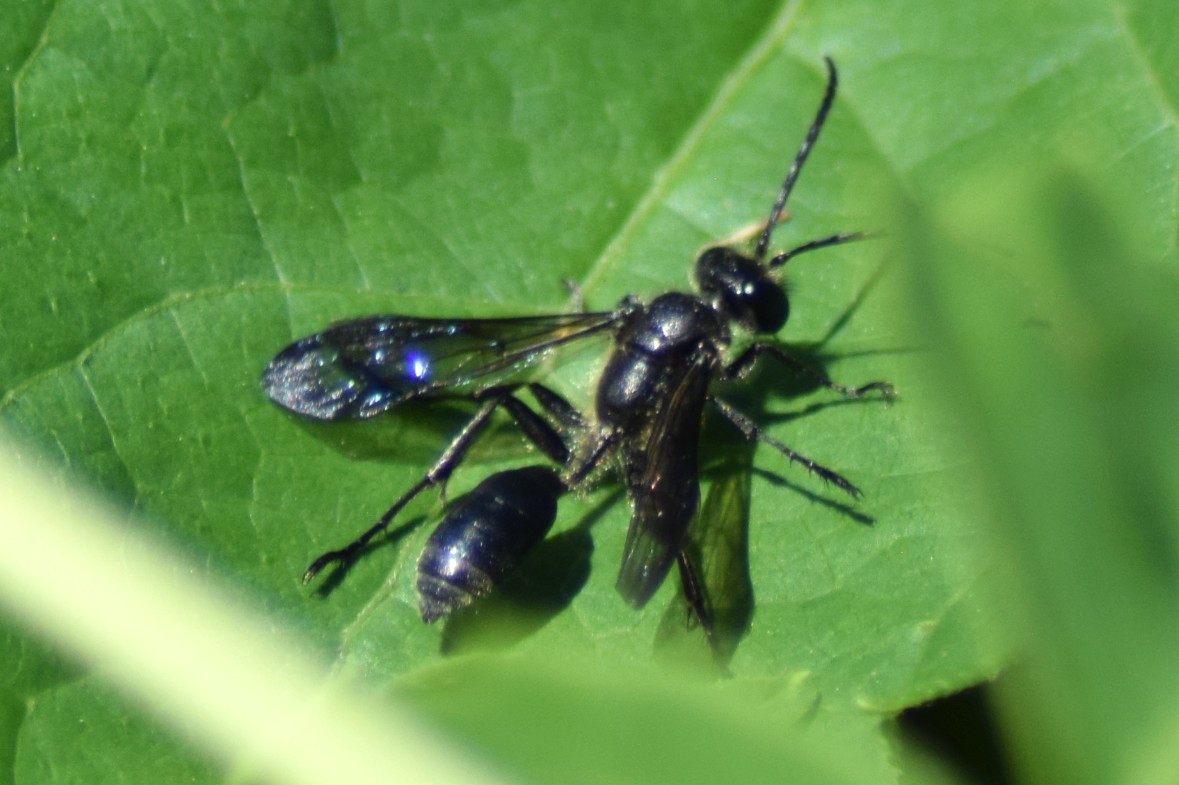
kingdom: Animalia
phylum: Arthropoda
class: Insecta
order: Hymenoptera
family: Sphecidae
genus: Isodontia
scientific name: Isodontia
